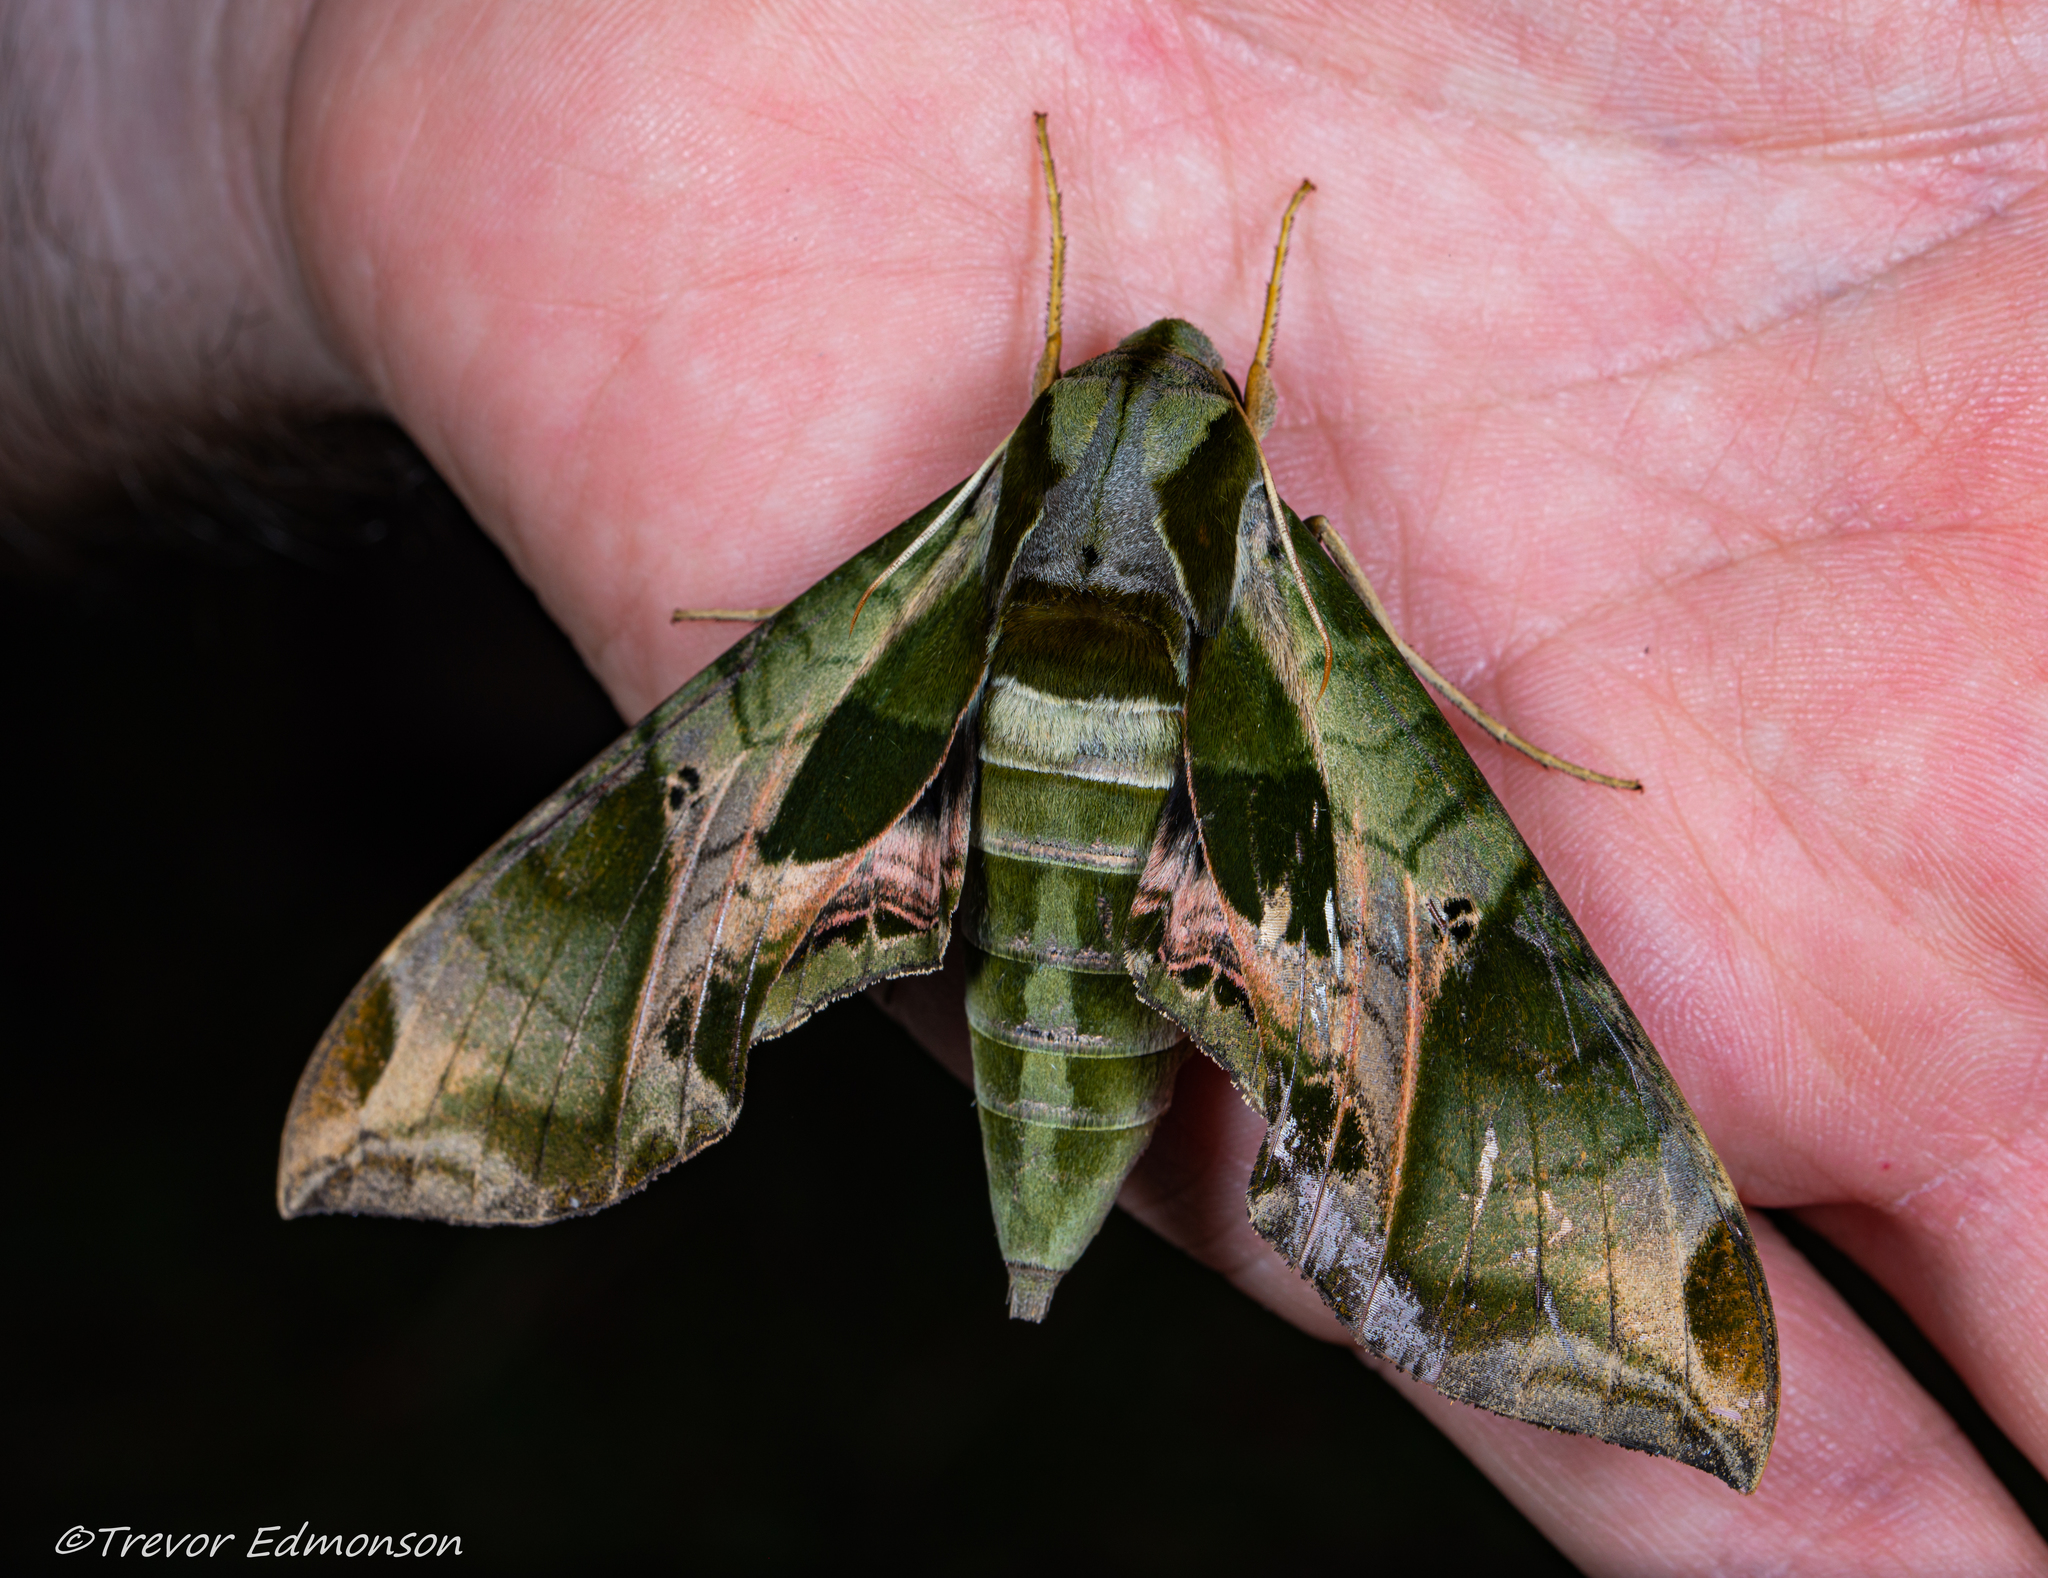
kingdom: Animalia
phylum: Arthropoda
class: Insecta
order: Lepidoptera
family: Sphingidae
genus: Eumorpha
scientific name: Eumorpha pandorus
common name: Pandora sphinx
